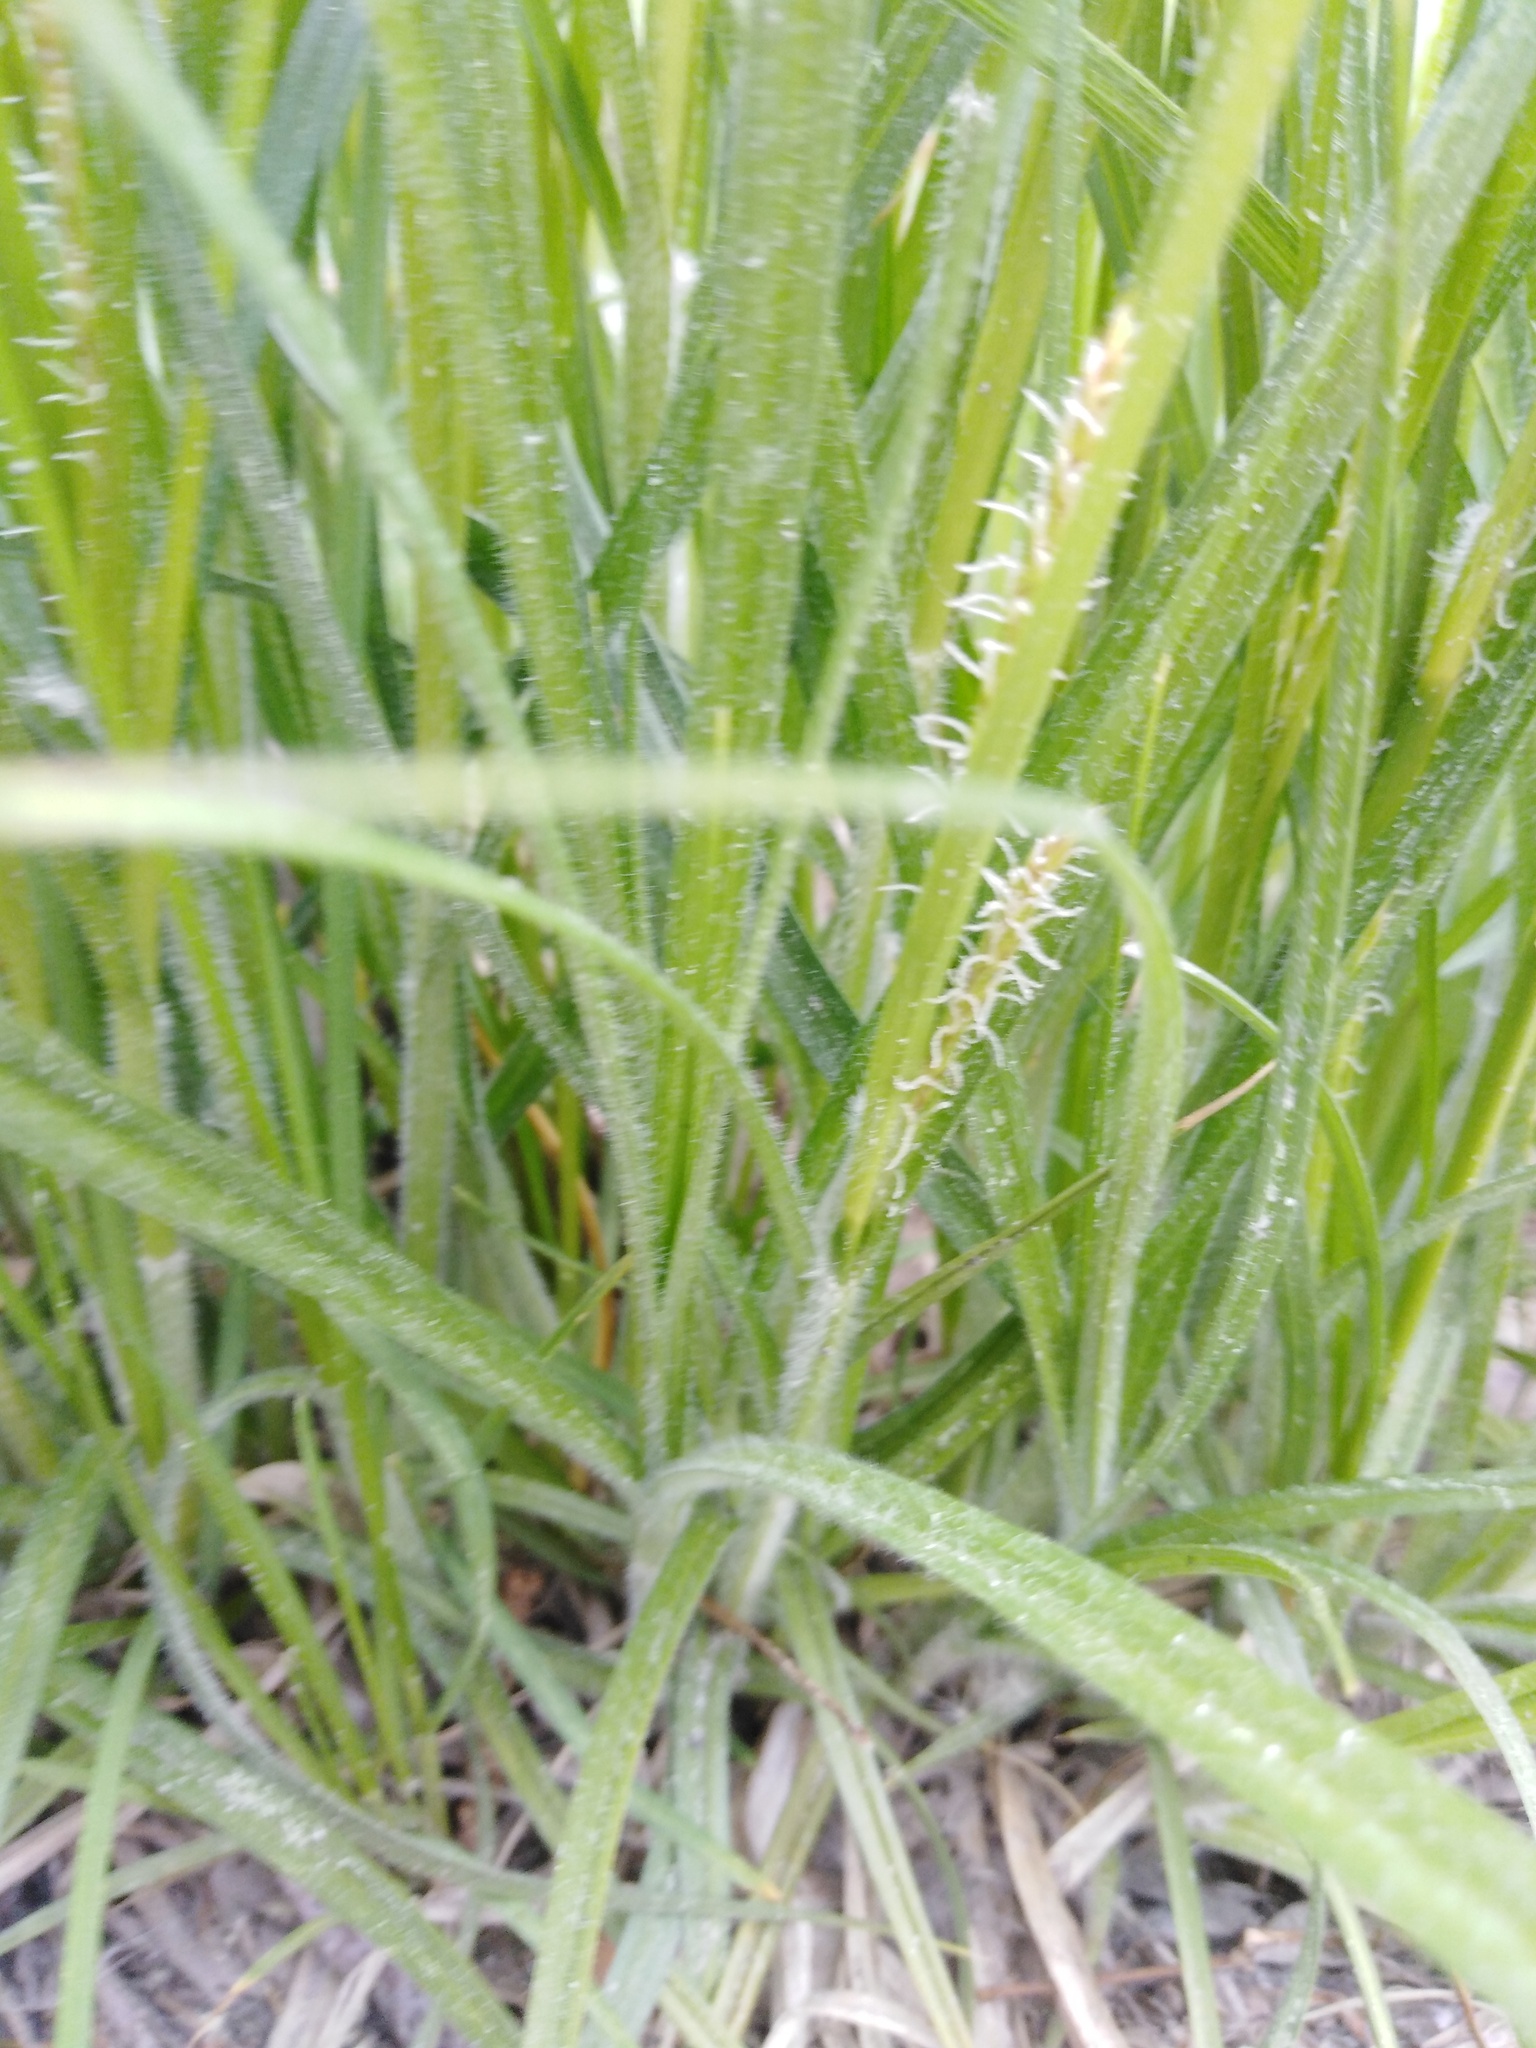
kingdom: Plantae
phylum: Tracheophyta
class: Liliopsida
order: Poales
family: Cyperaceae
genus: Carex
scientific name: Carex hirta
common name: Hairy sedge
